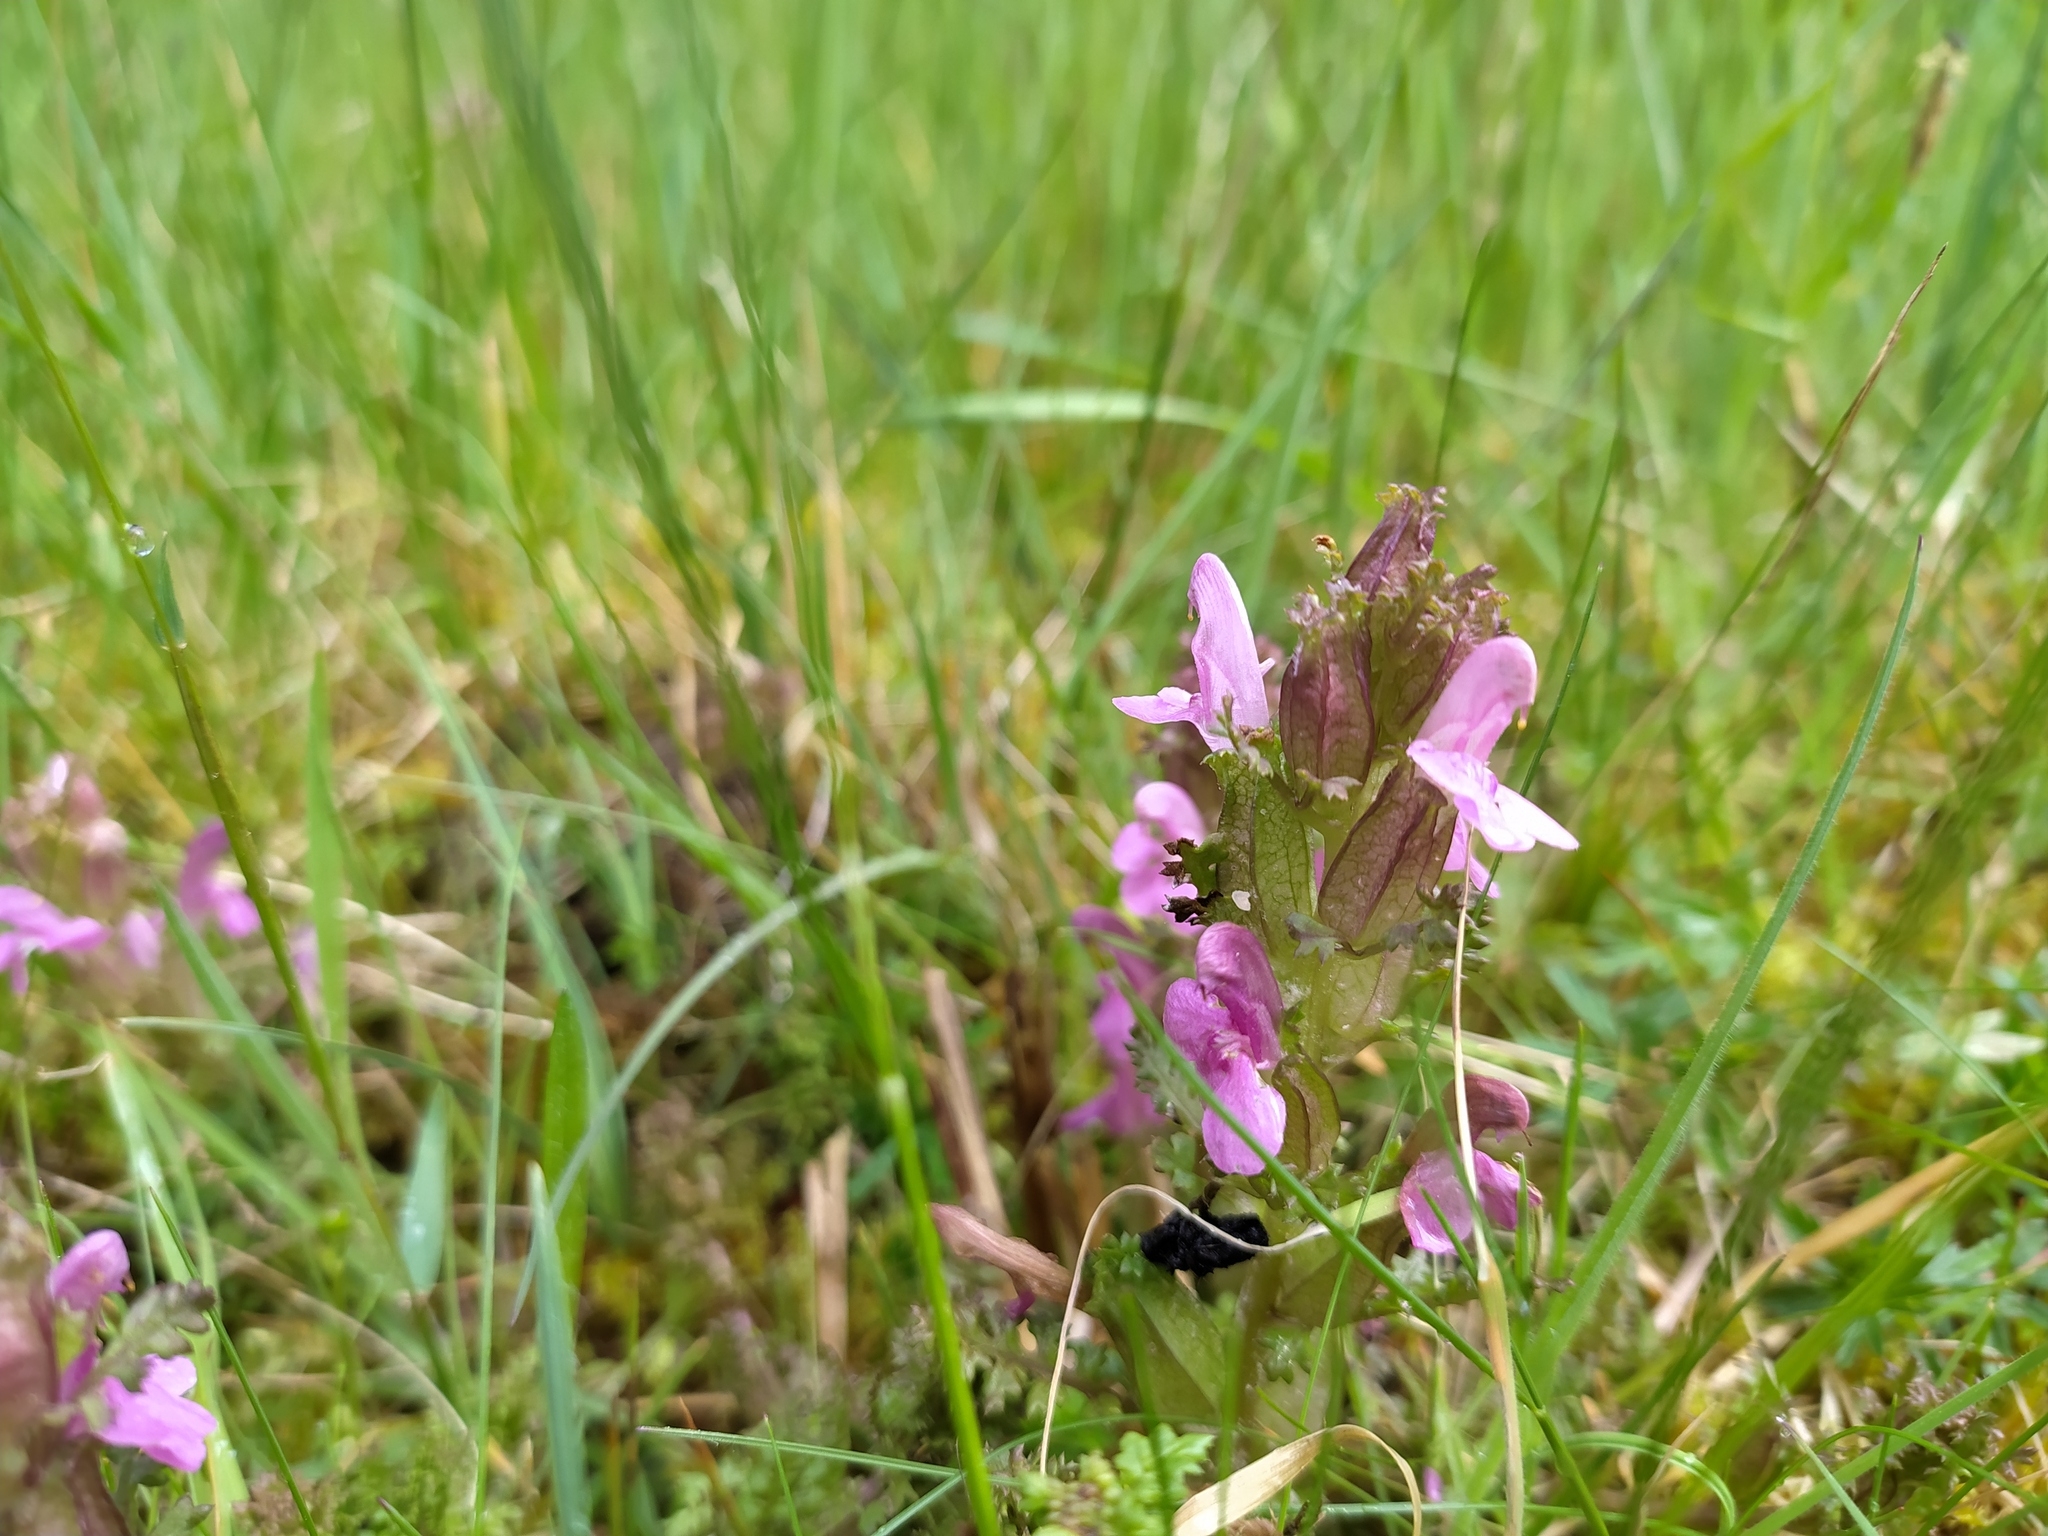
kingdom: Plantae
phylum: Tracheophyta
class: Magnoliopsida
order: Lamiales
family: Orobanchaceae
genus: Pedicularis
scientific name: Pedicularis sylvatica
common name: Lousewort
